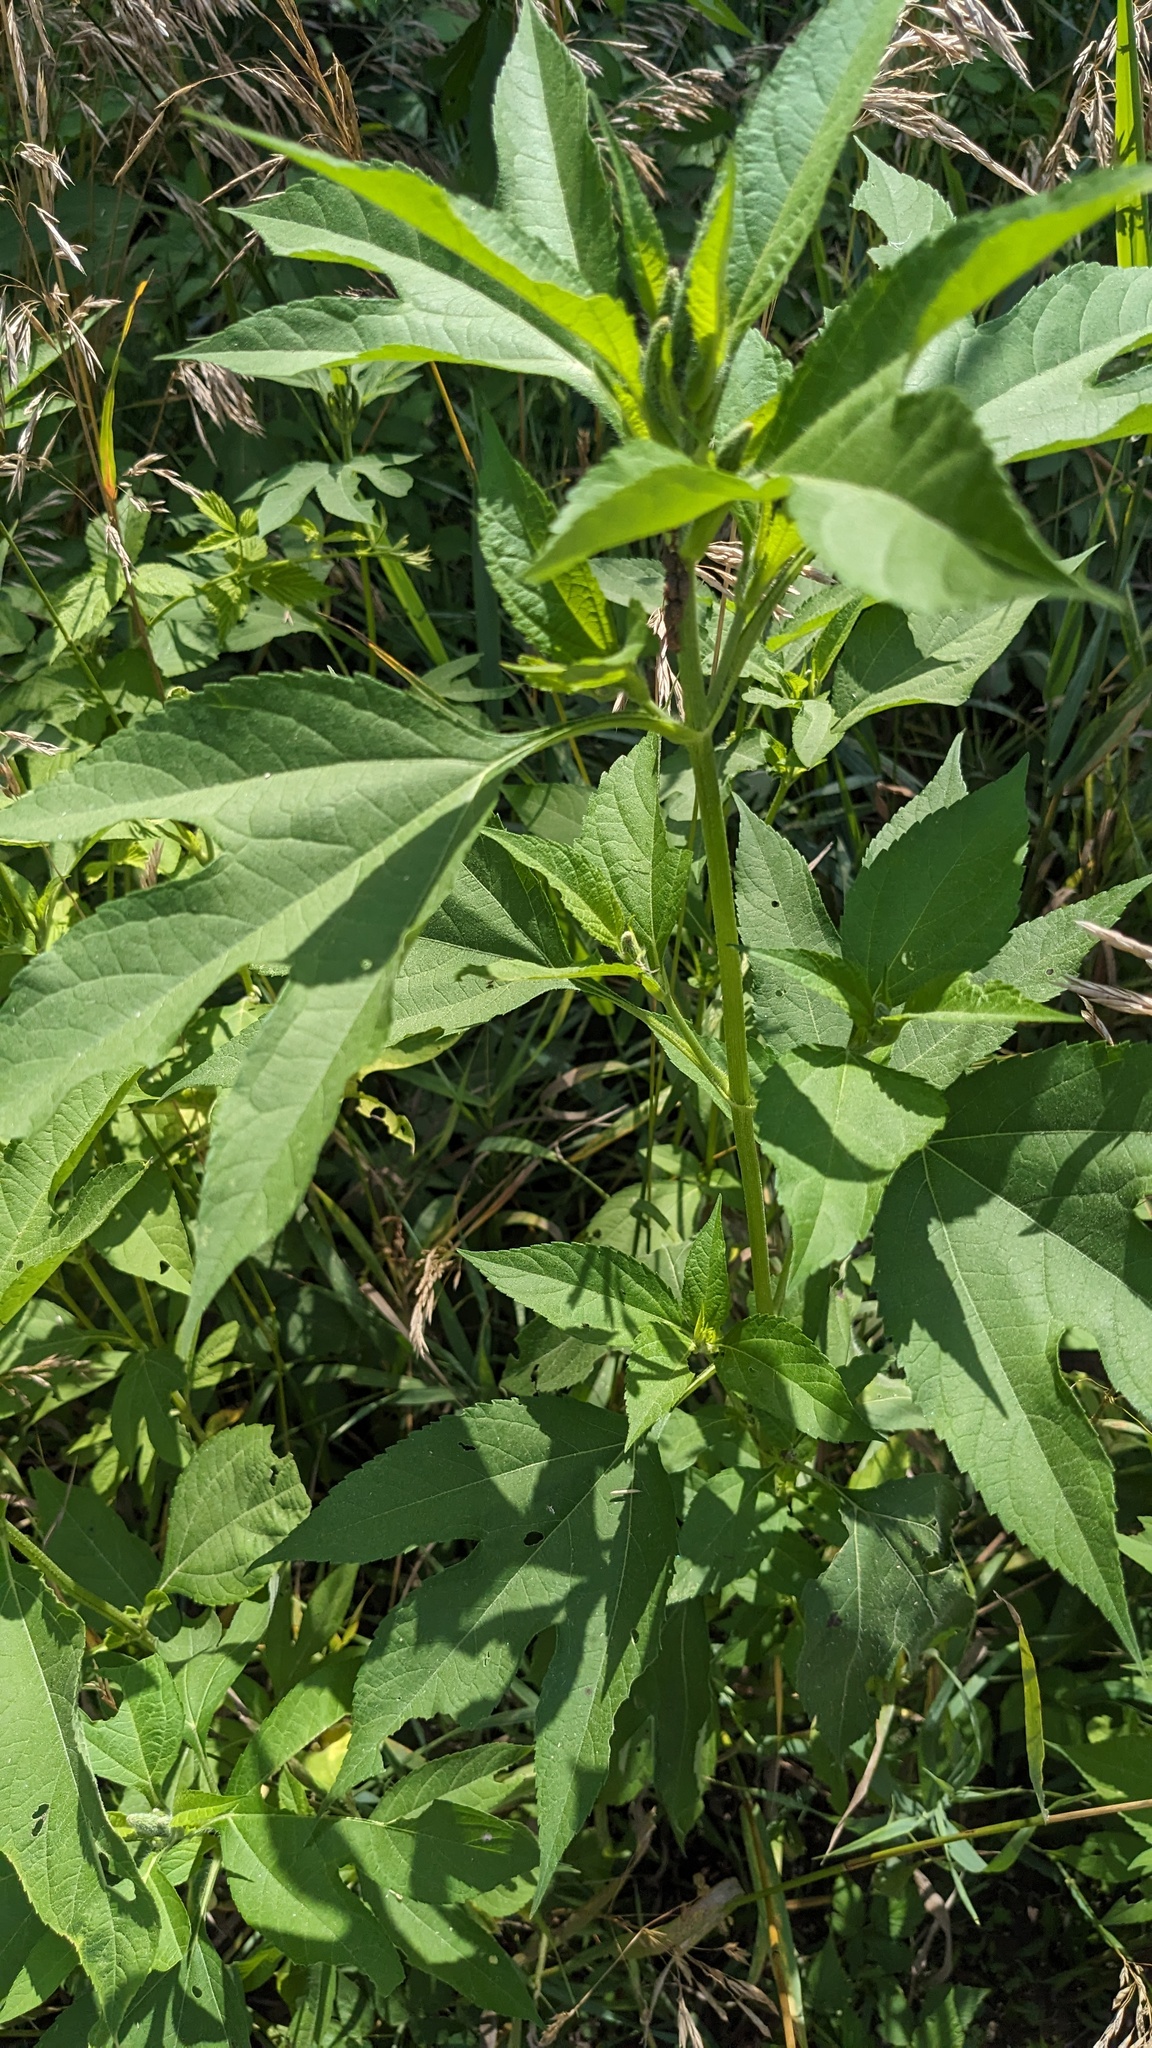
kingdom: Plantae
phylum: Tracheophyta
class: Magnoliopsida
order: Asterales
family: Asteraceae
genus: Ambrosia
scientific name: Ambrosia trifida
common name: Giant ragweed
